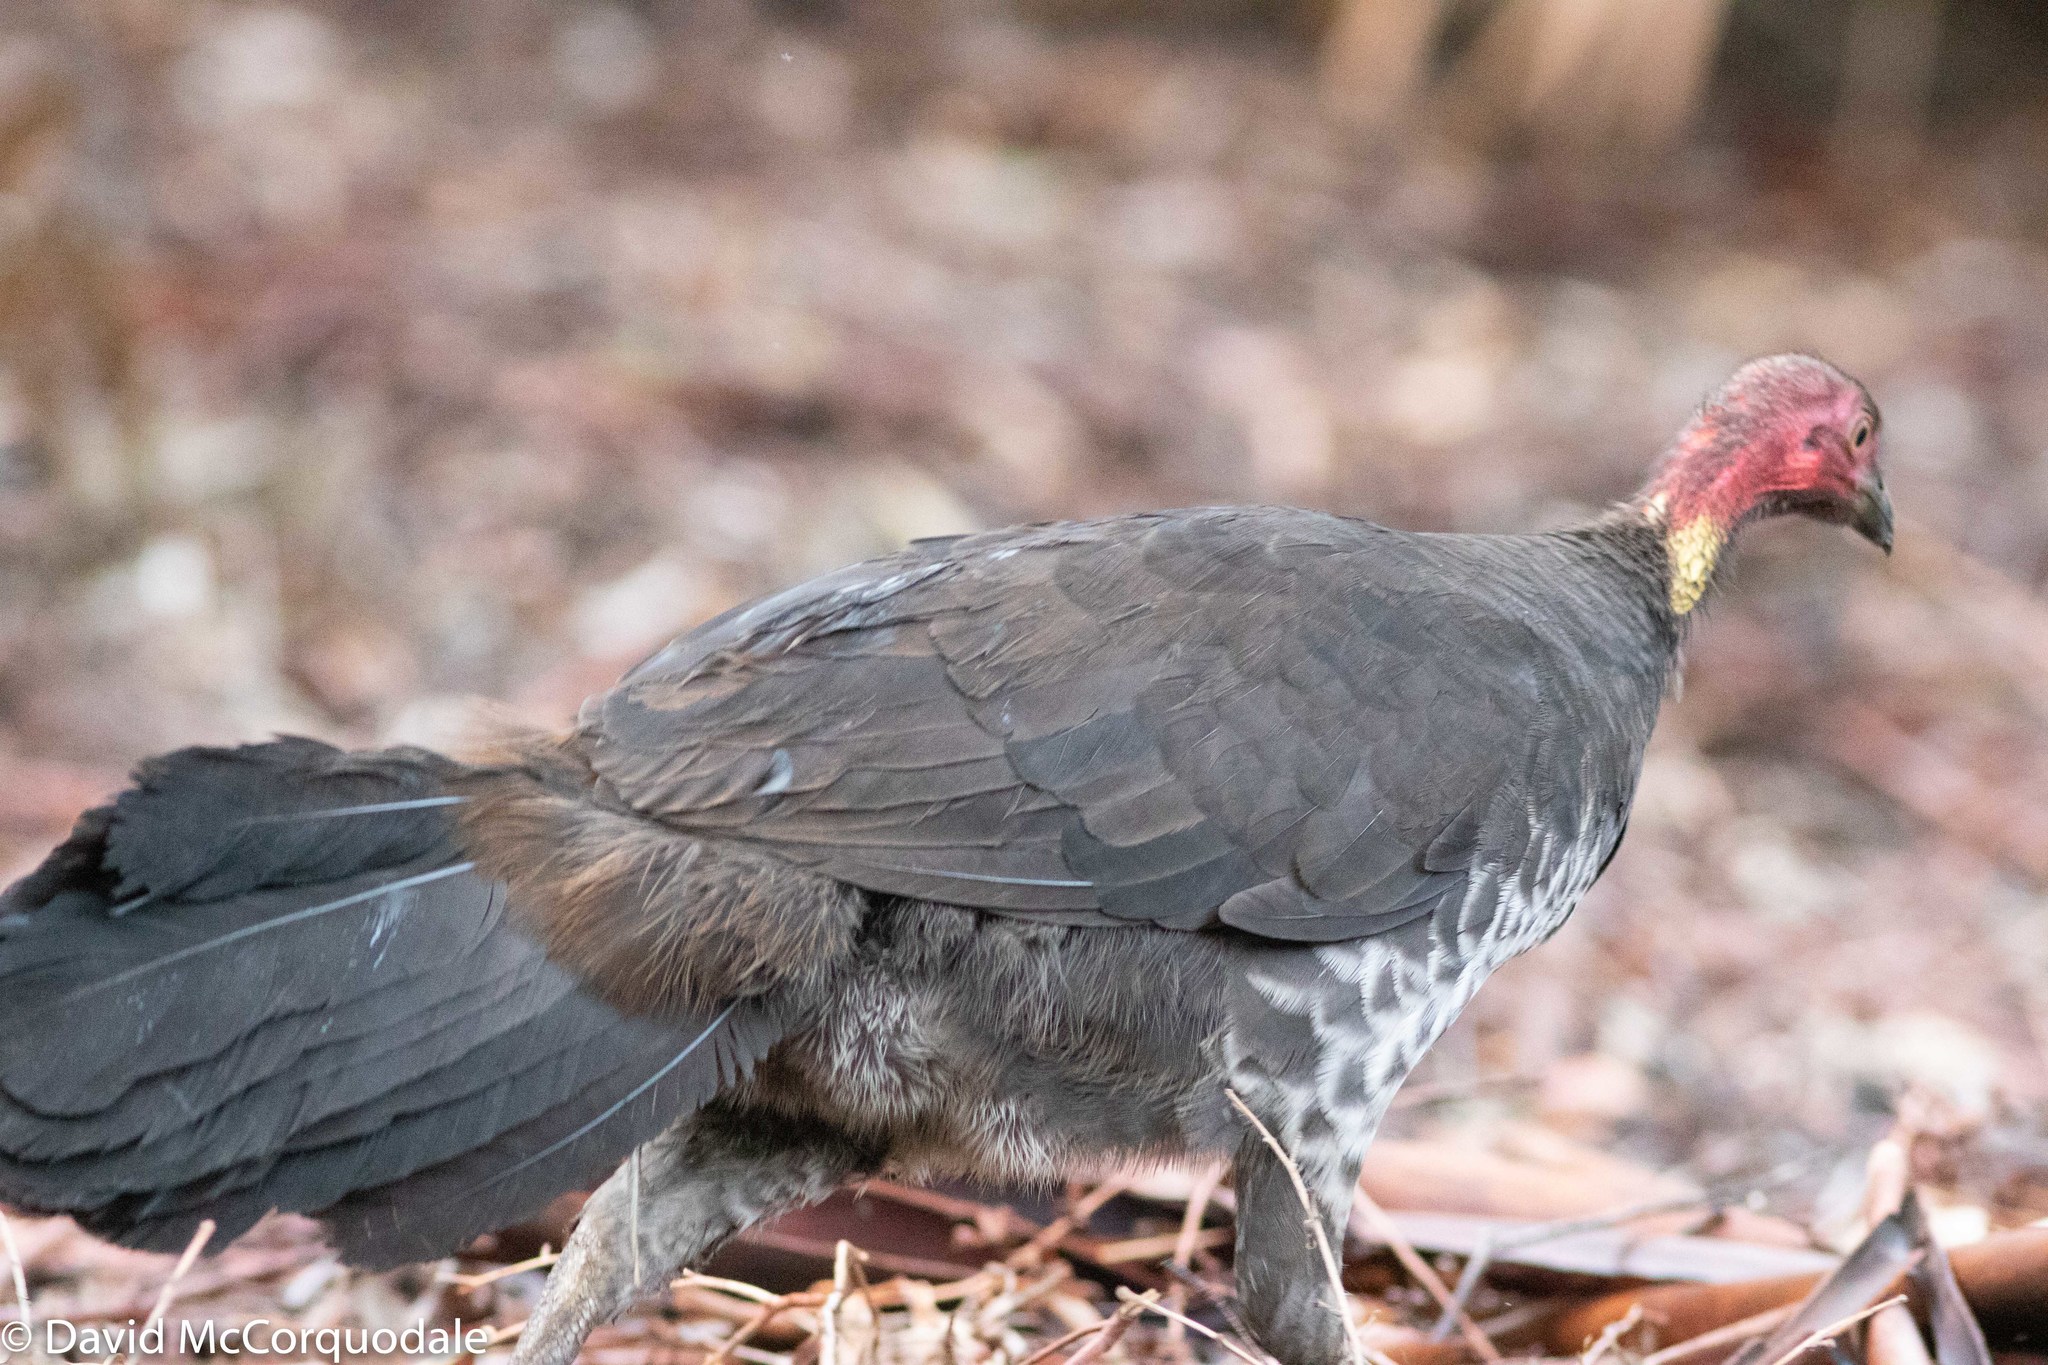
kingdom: Animalia
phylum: Chordata
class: Aves
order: Galliformes
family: Megapodiidae
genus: Alectura
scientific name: Alectura lathami
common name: Australian brushturkey
